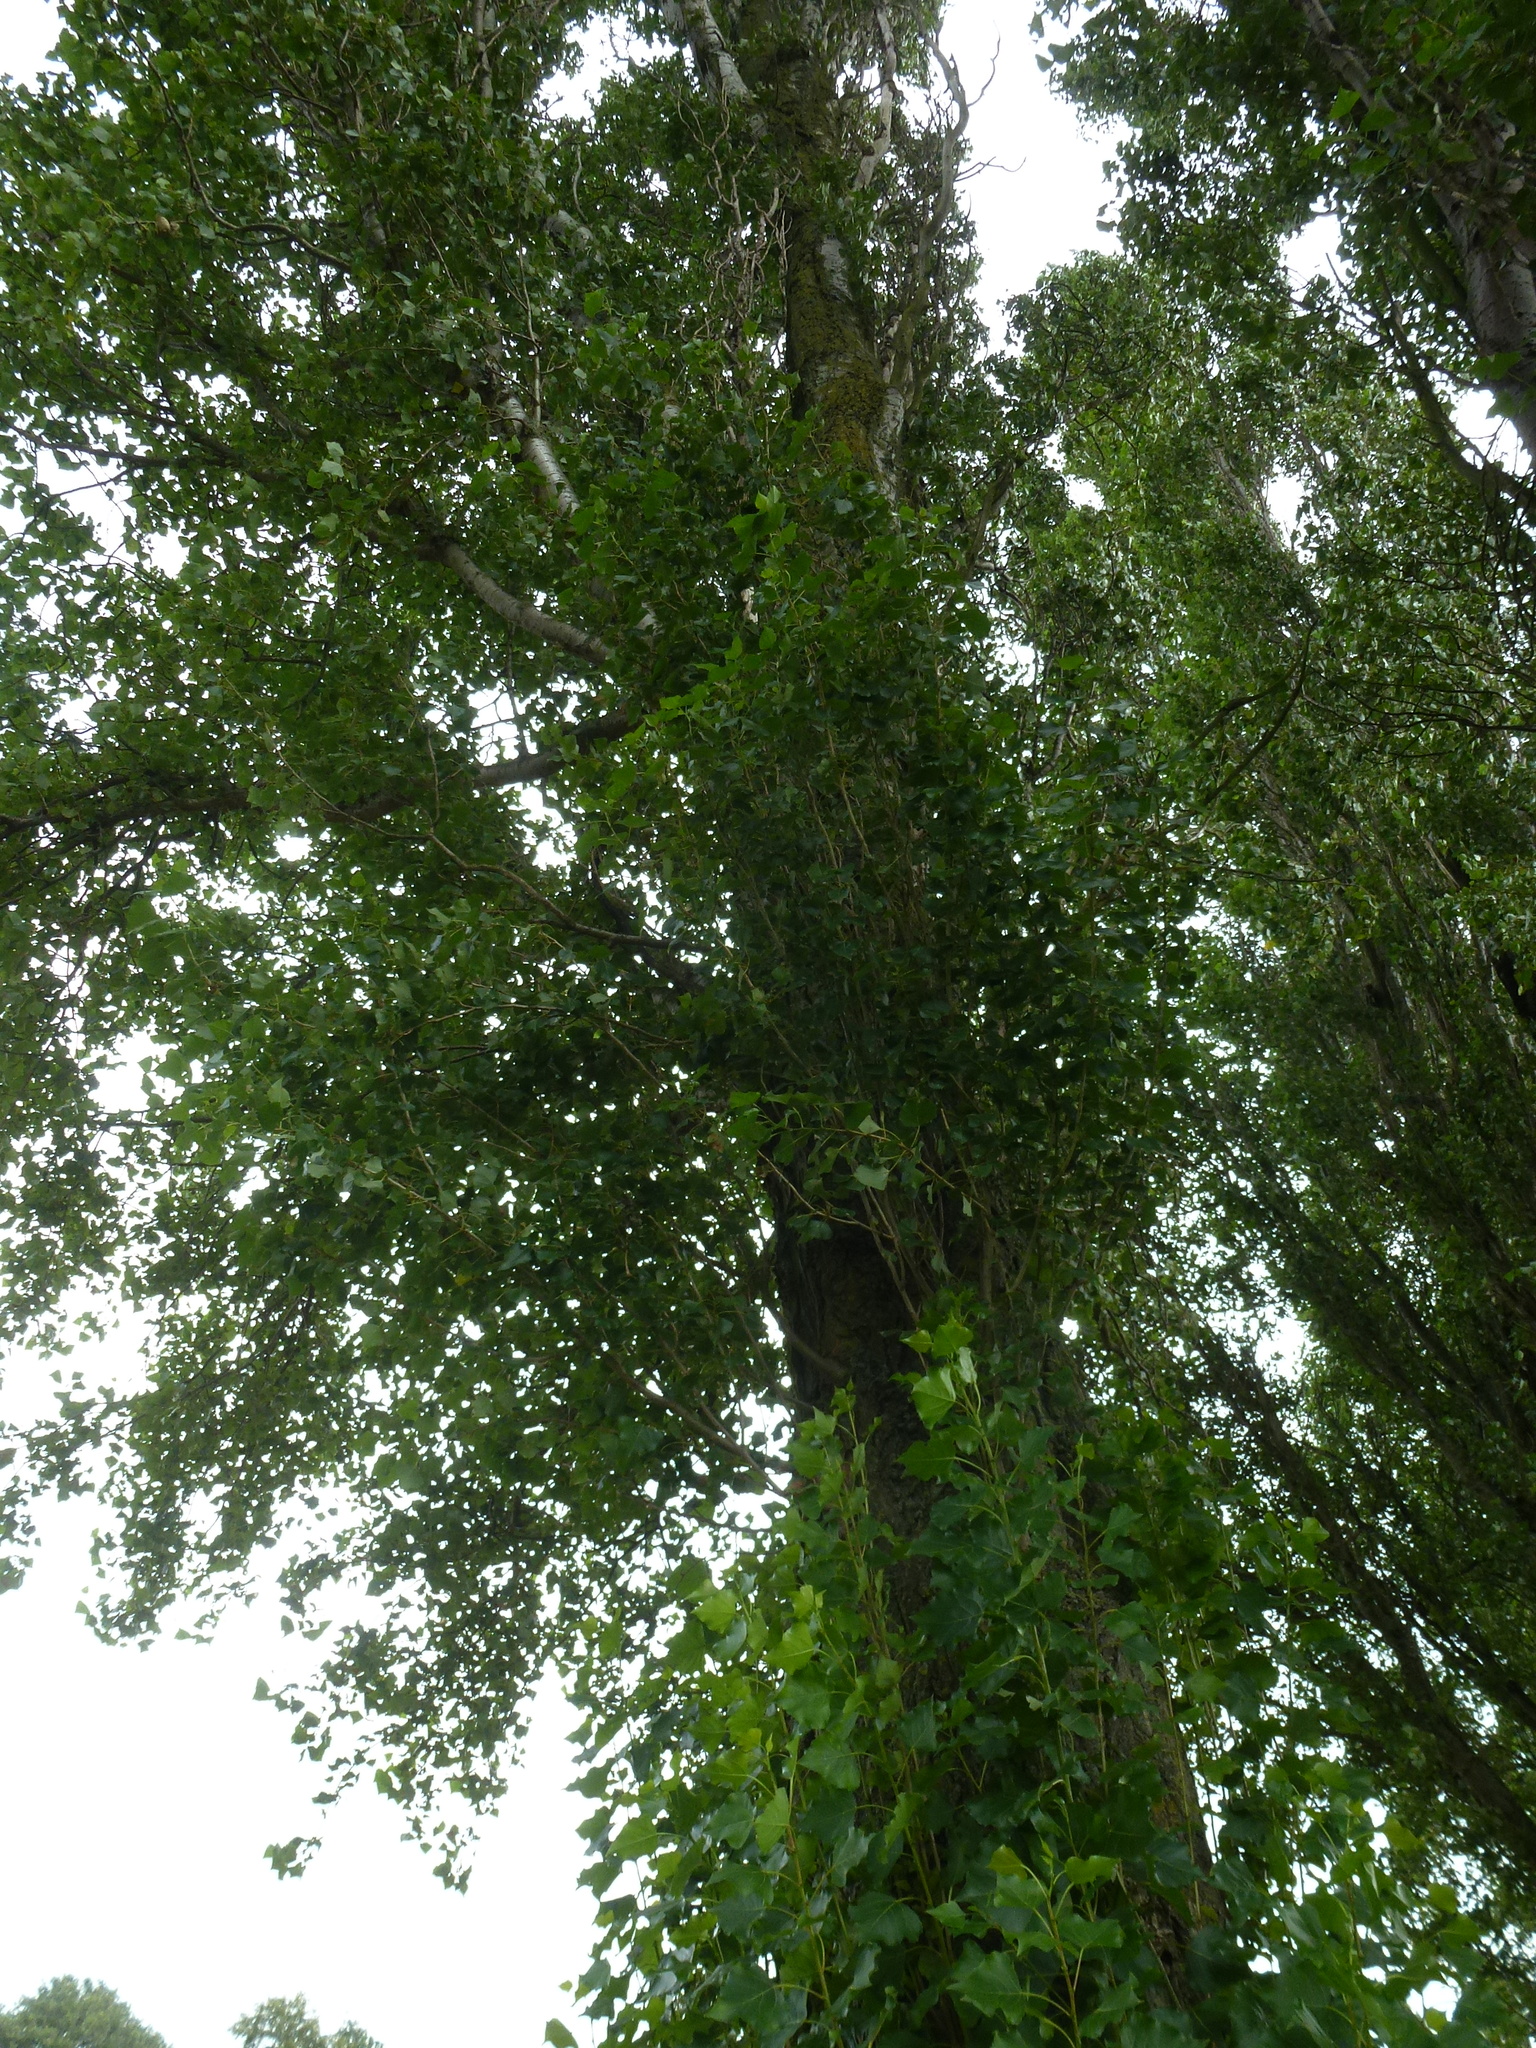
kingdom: Plantae
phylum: Tracheophyta
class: Magnoliopsida
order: Malpighiales
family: Salicaceae
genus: Populus
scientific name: Populus nigra
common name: Black poplar
